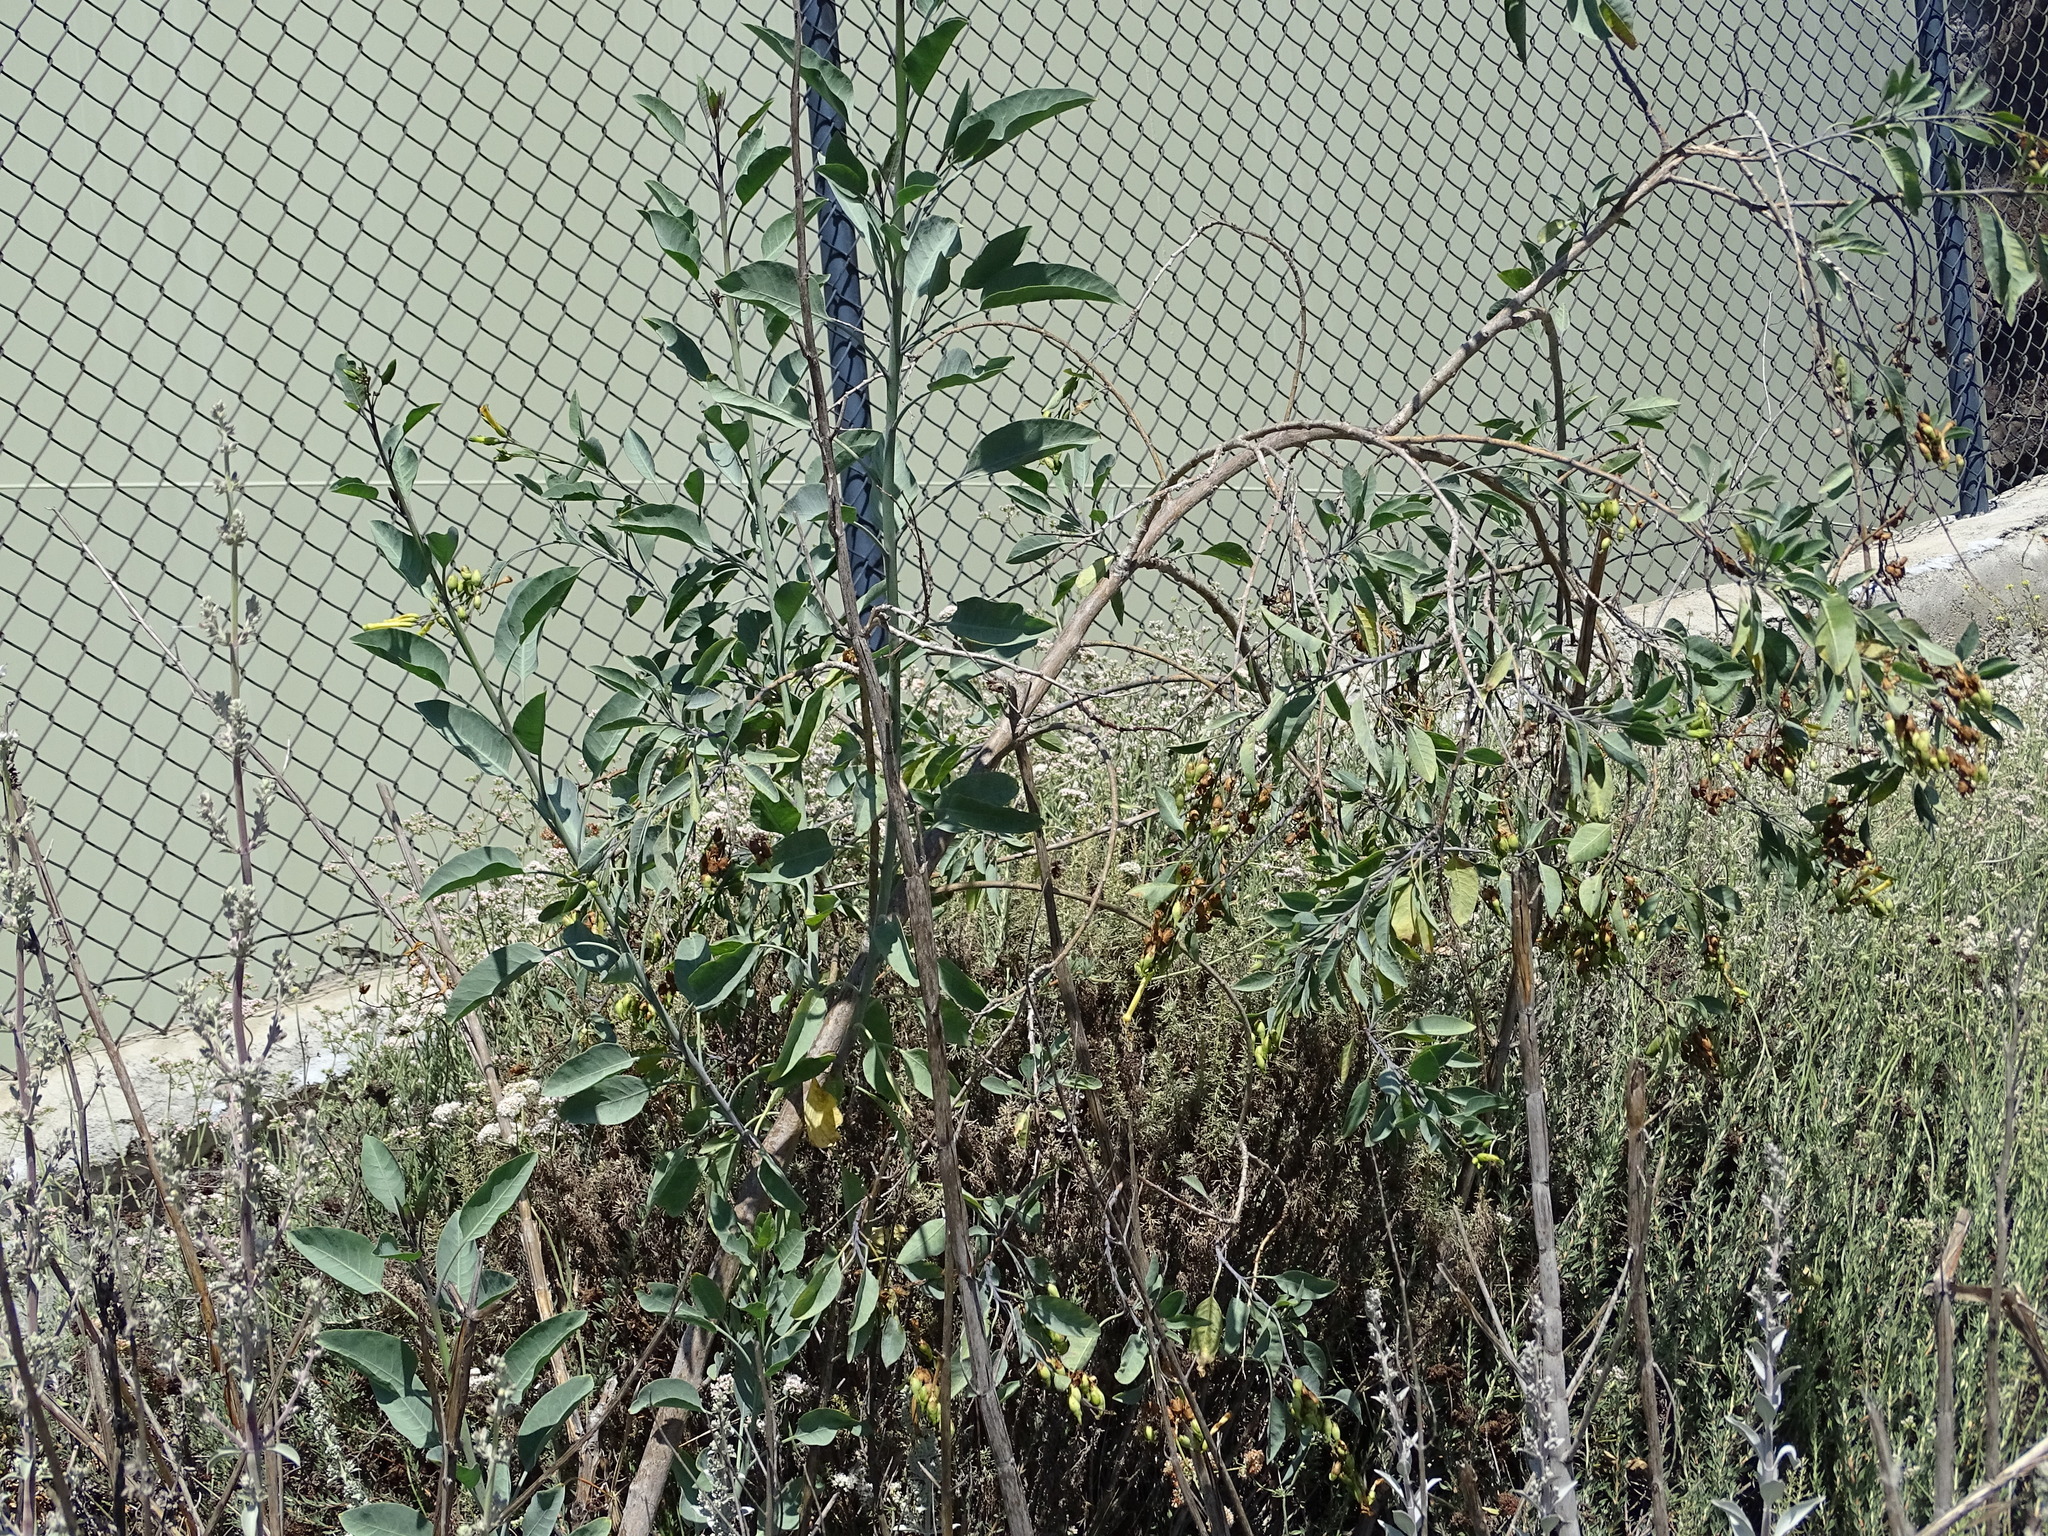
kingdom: Plantae
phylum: Tracheophyta
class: Magnoliopsida
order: Solanales
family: Solanaceae
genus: Nicotiana
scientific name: Nicotiana glauca
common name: Tree tobacco
